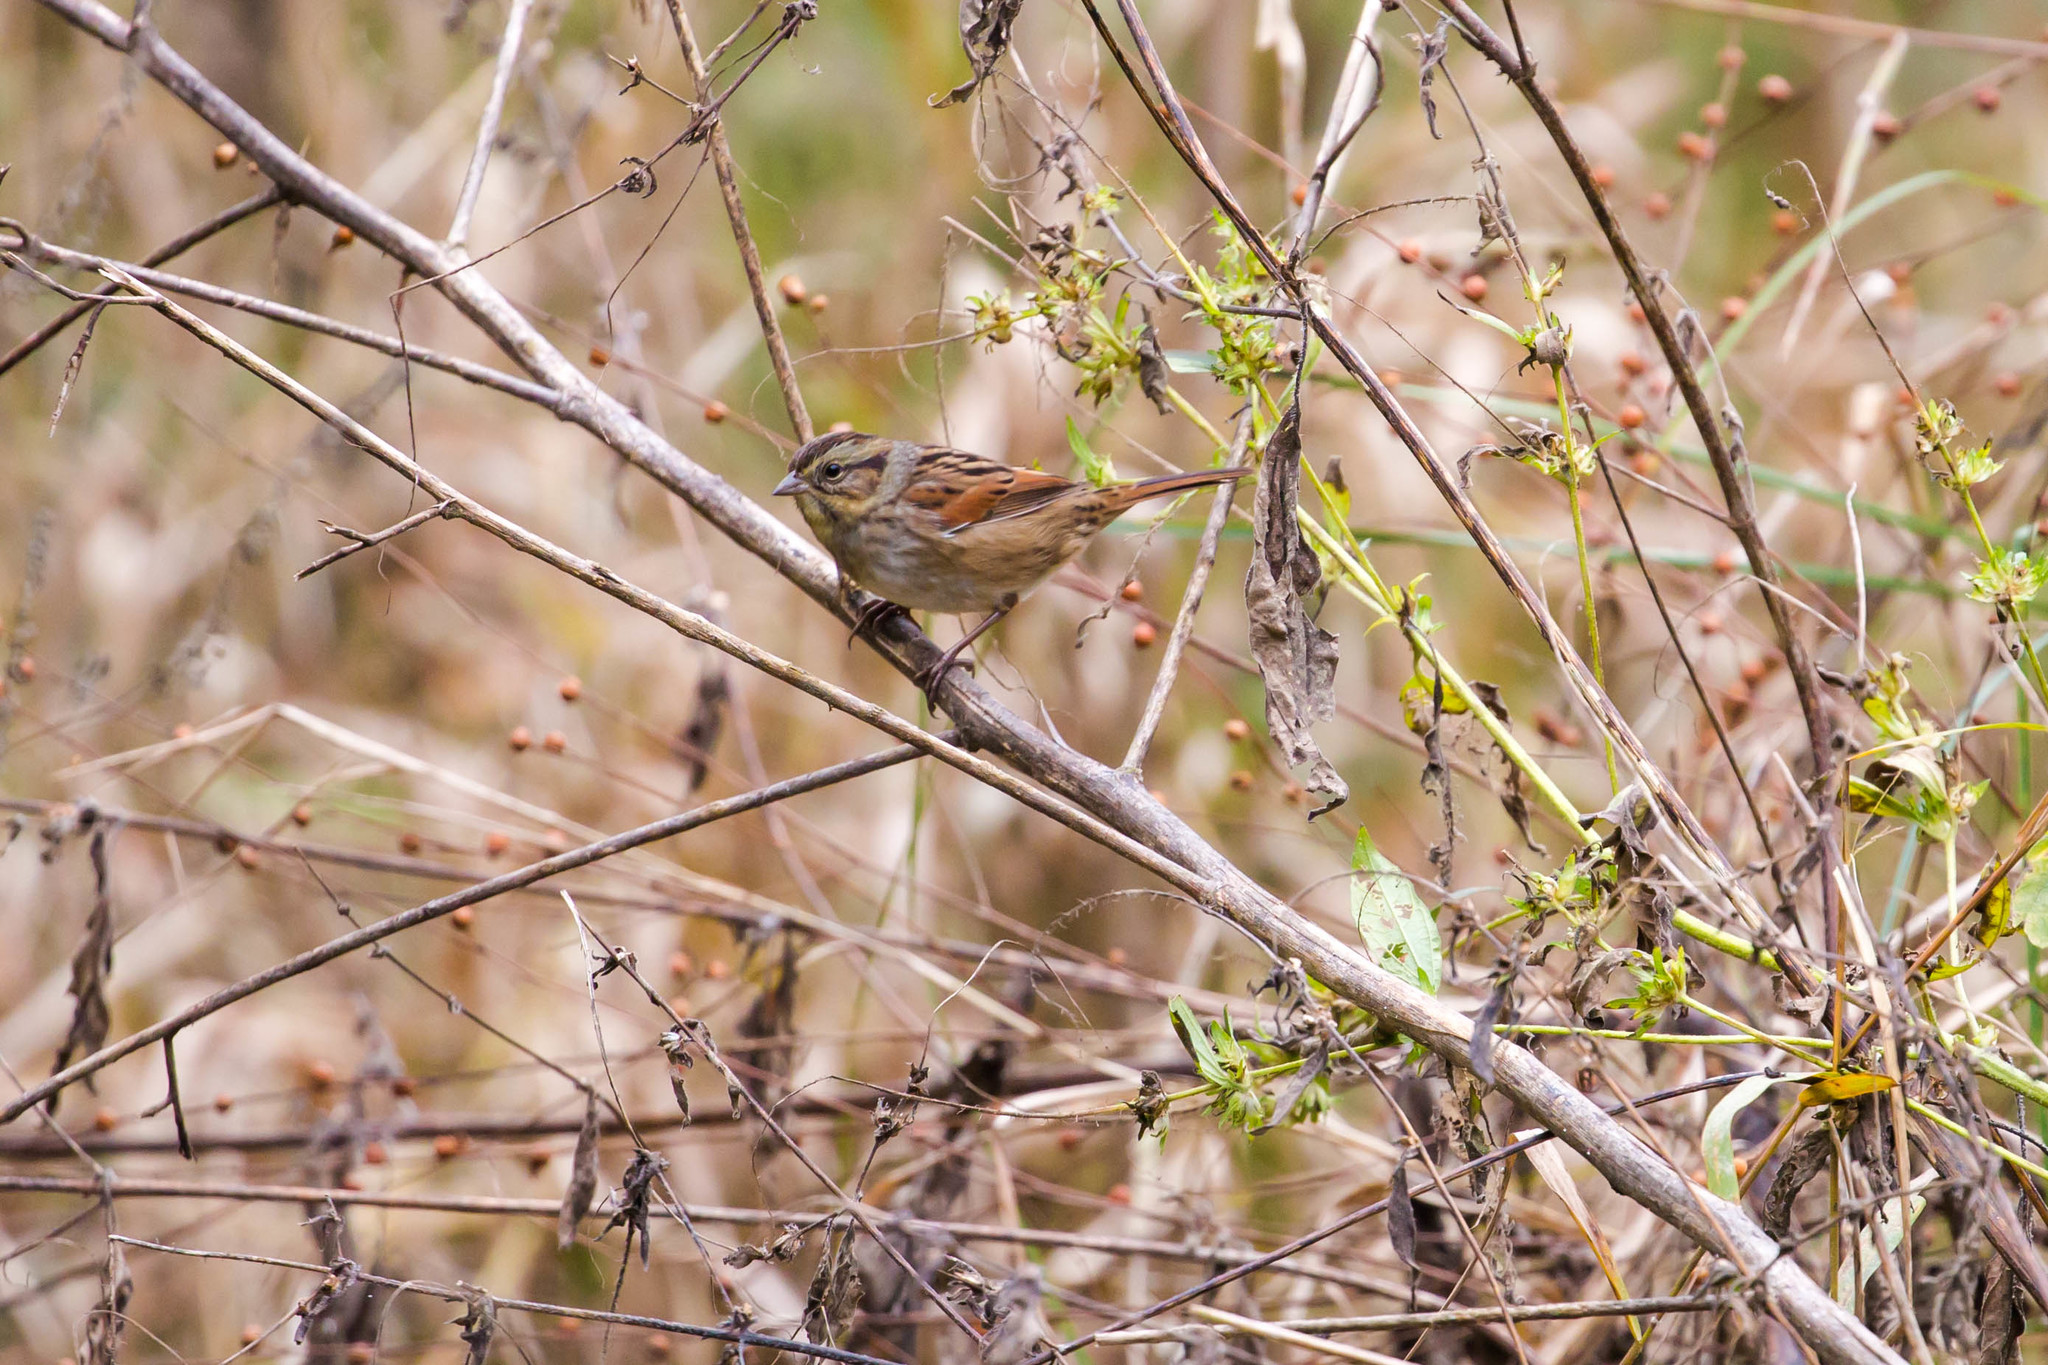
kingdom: Animalia
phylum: Chordata
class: Aves
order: Passeriformes
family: Passerellidae
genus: Melospiza
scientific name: Melospiza georgiana
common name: Swamp sparrow
